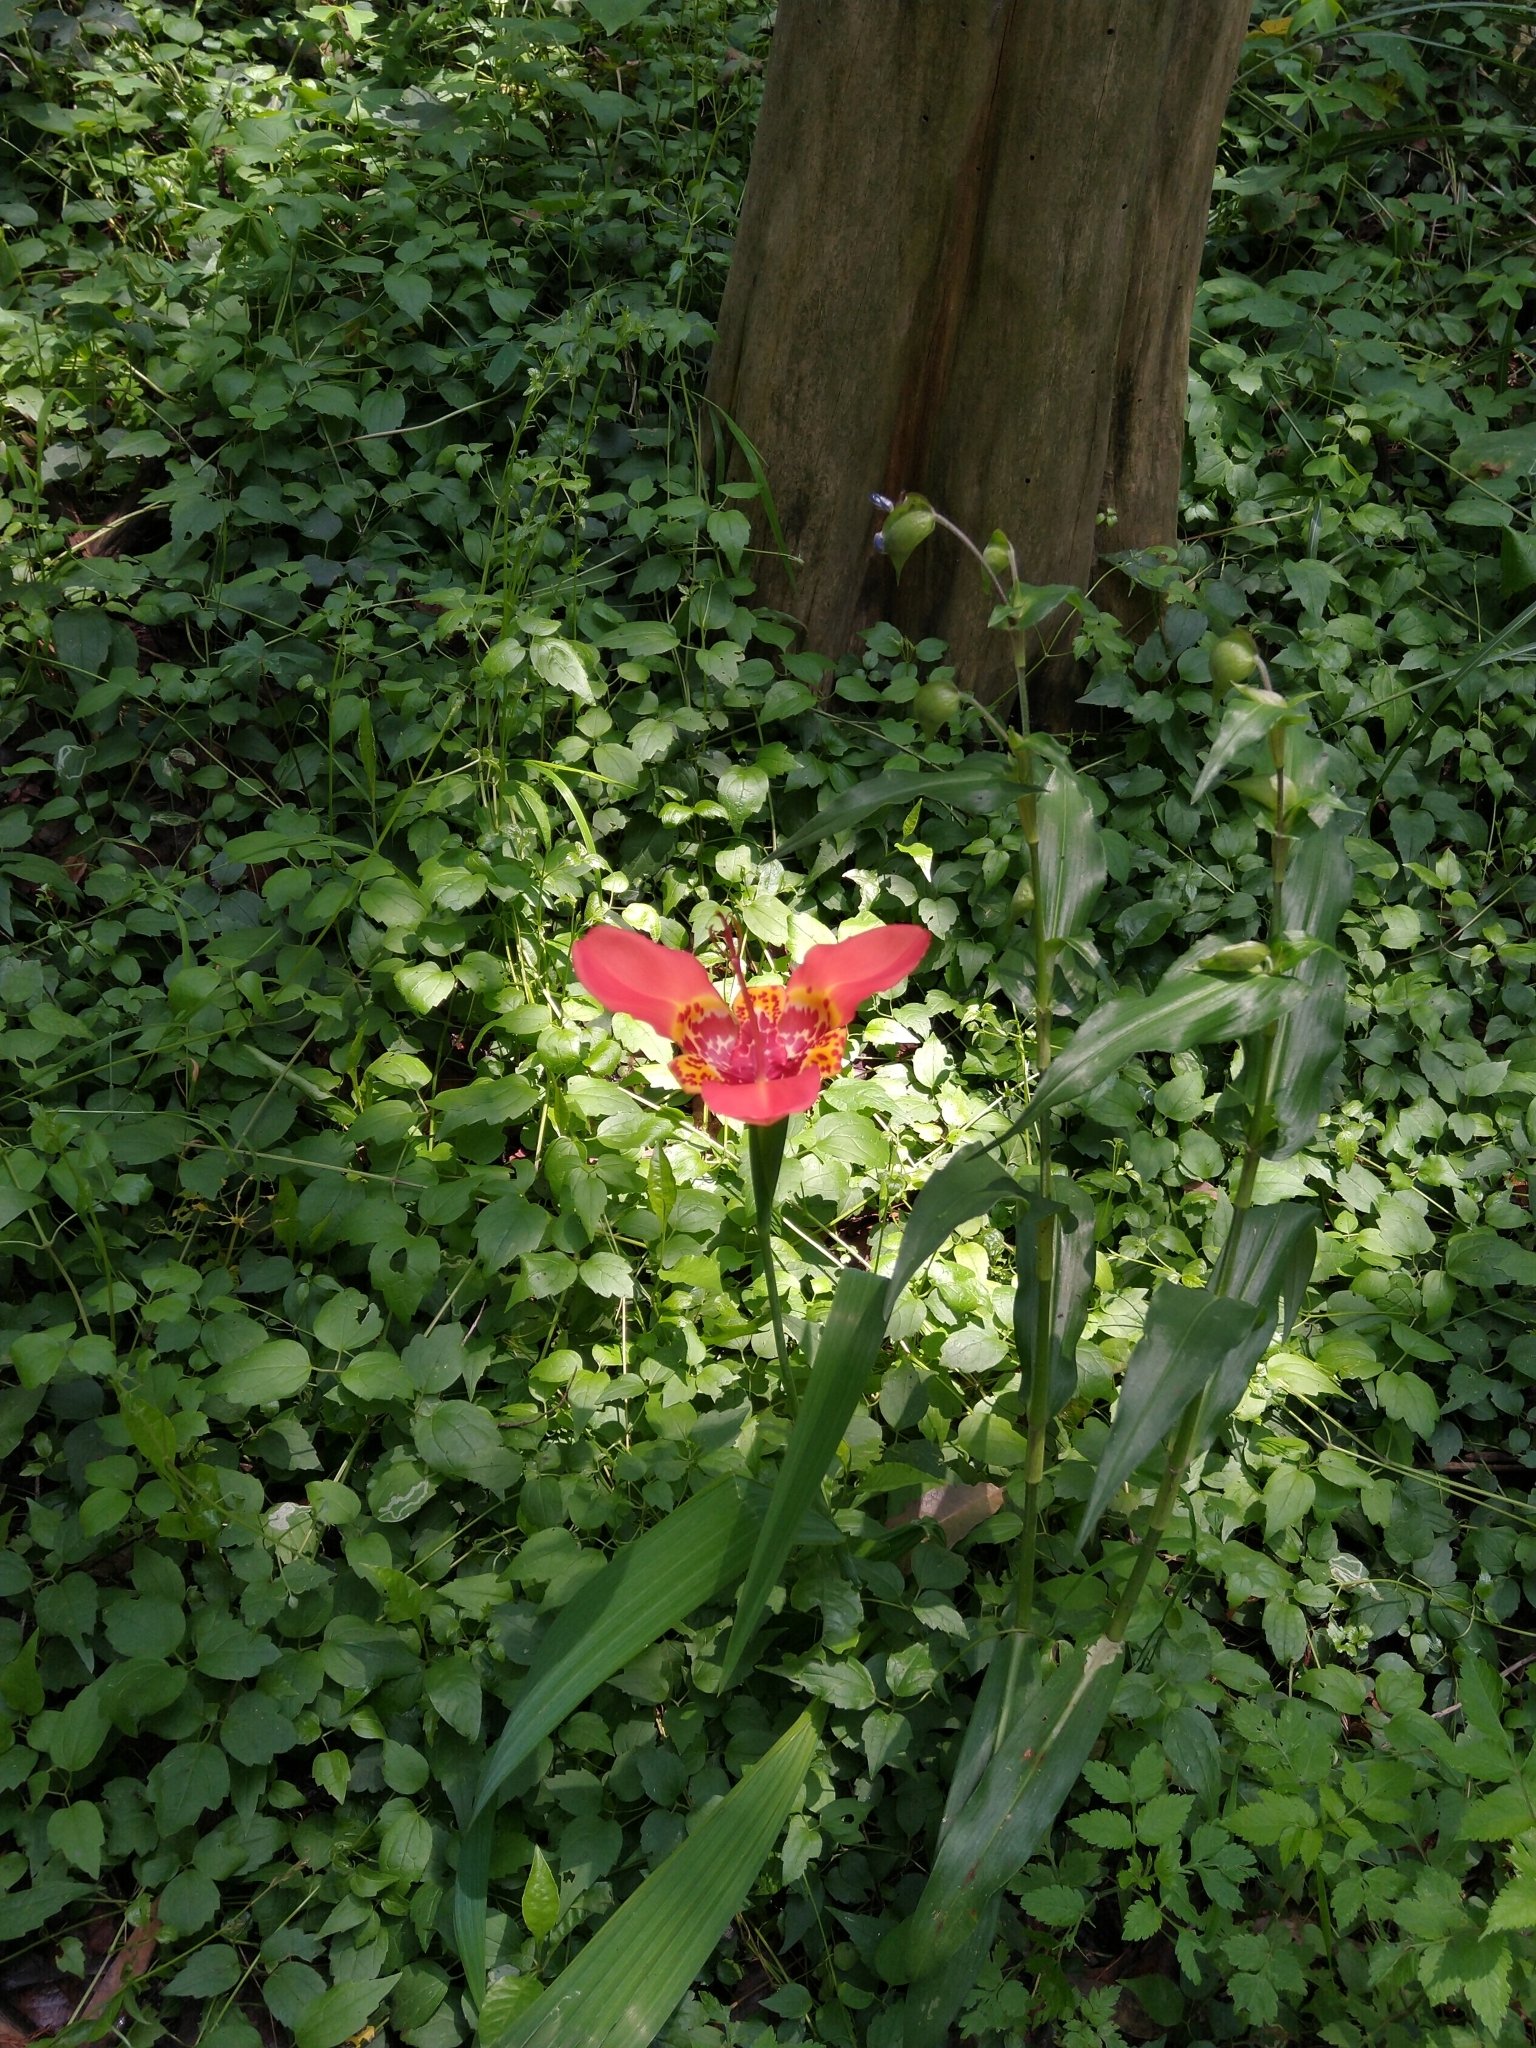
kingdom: Plantae
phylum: Tracheophyta
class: Liliopsida
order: Asparagales
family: Iridaceae
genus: Tigridia
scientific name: Tigridia pavonia
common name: Peacock-flower
